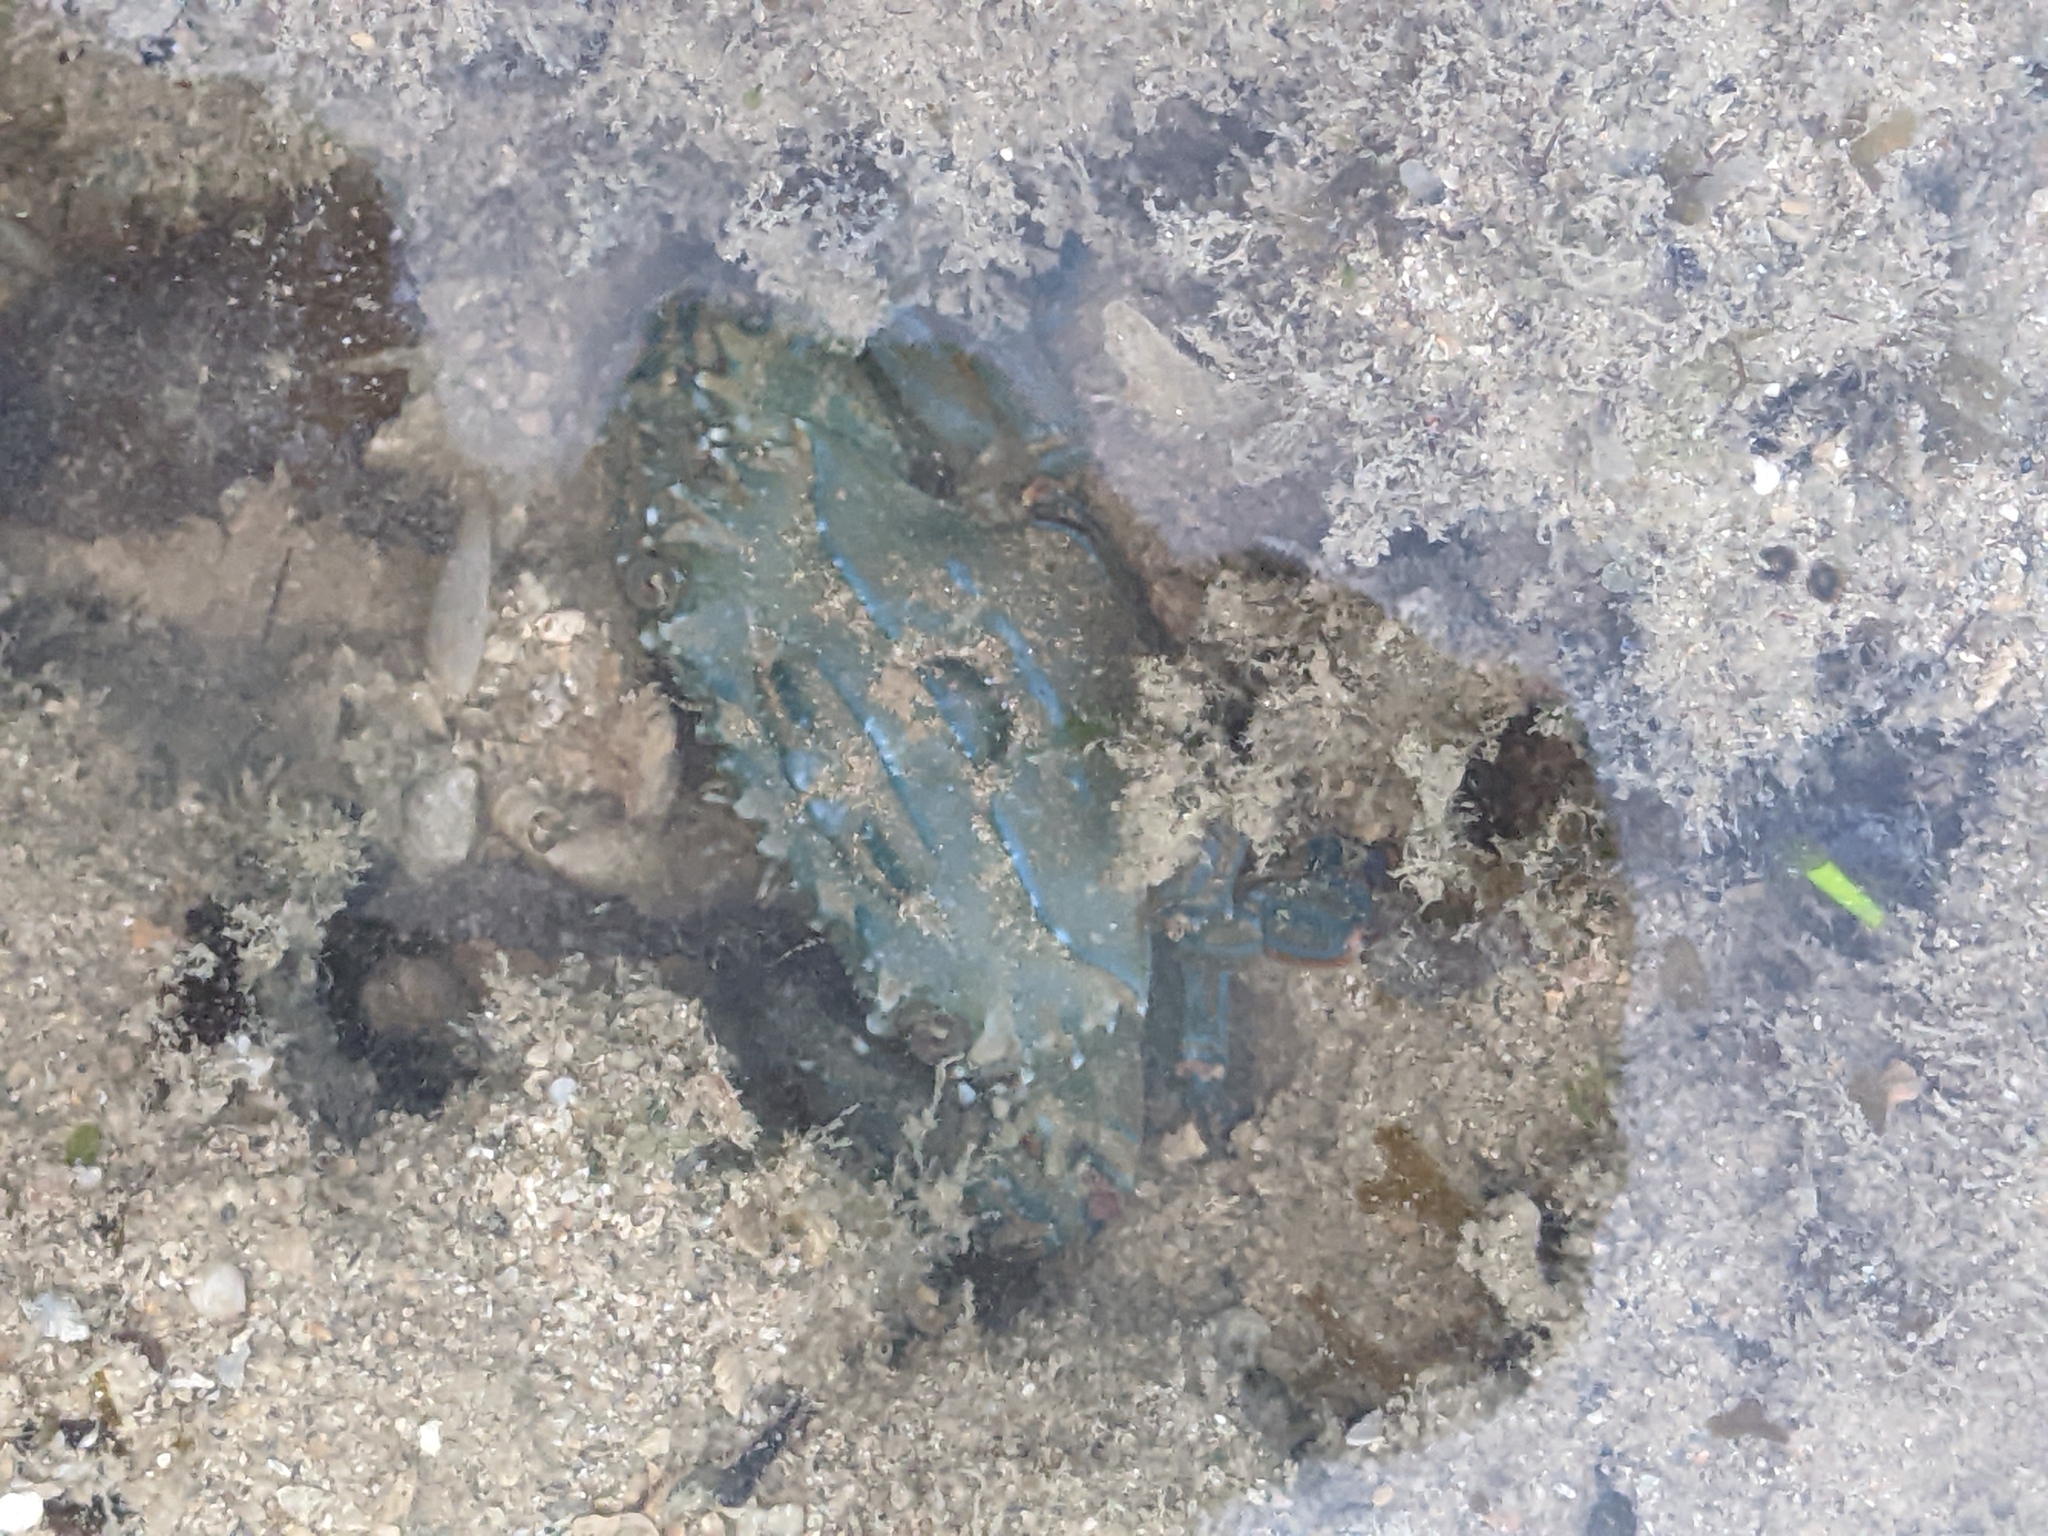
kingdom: Animalia
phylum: Arthropoda
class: Malacostraca
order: Decapoda
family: Portunidae
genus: Thalamita
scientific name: Thalamita danae
